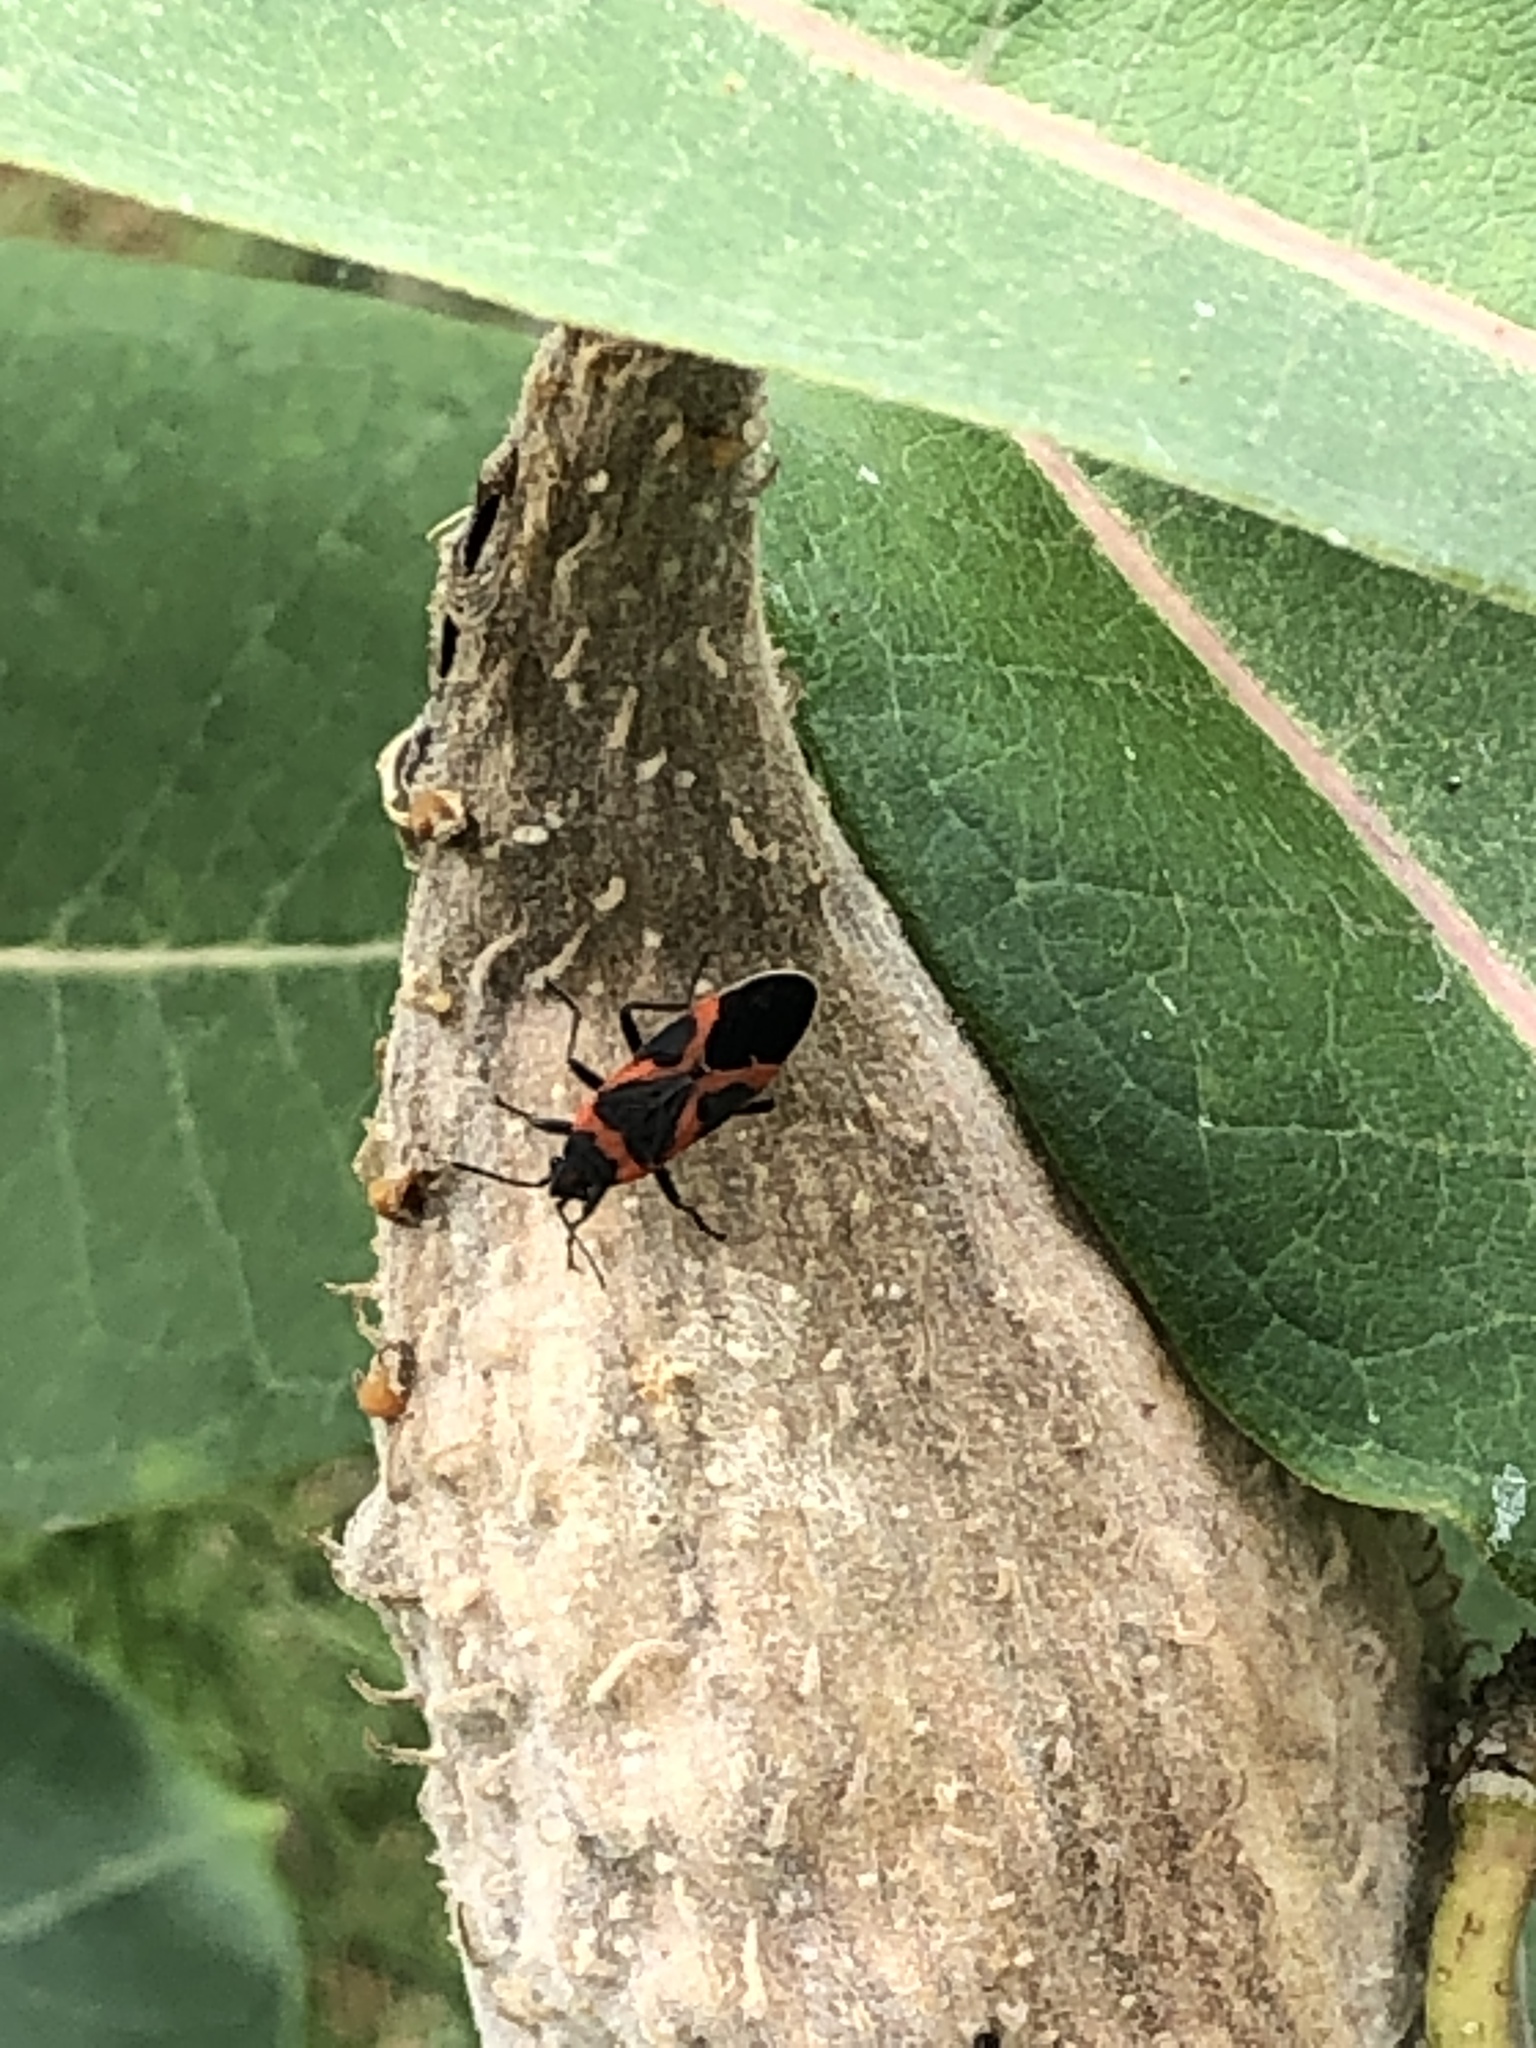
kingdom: Animalia
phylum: Arthropoda
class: Insecta
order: Hemiptera
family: Lygaeidae
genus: Lygaeus
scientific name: Lygaeus kalmii
